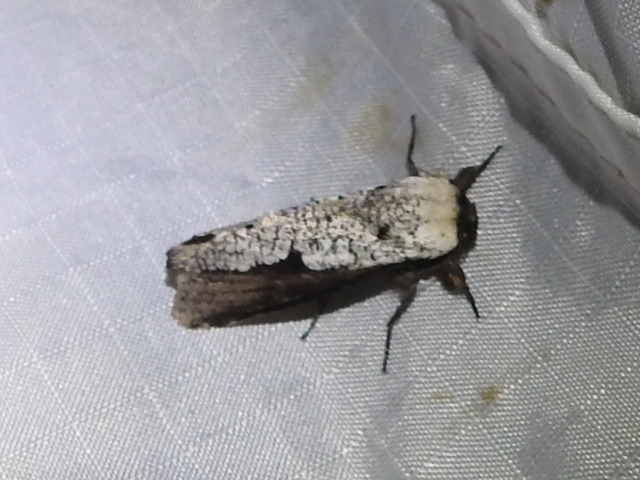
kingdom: Animalia
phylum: Arthropoda
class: Insecta
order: Lepidoptera
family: Cossidae
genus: Brypoctia
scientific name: Brypoctia
